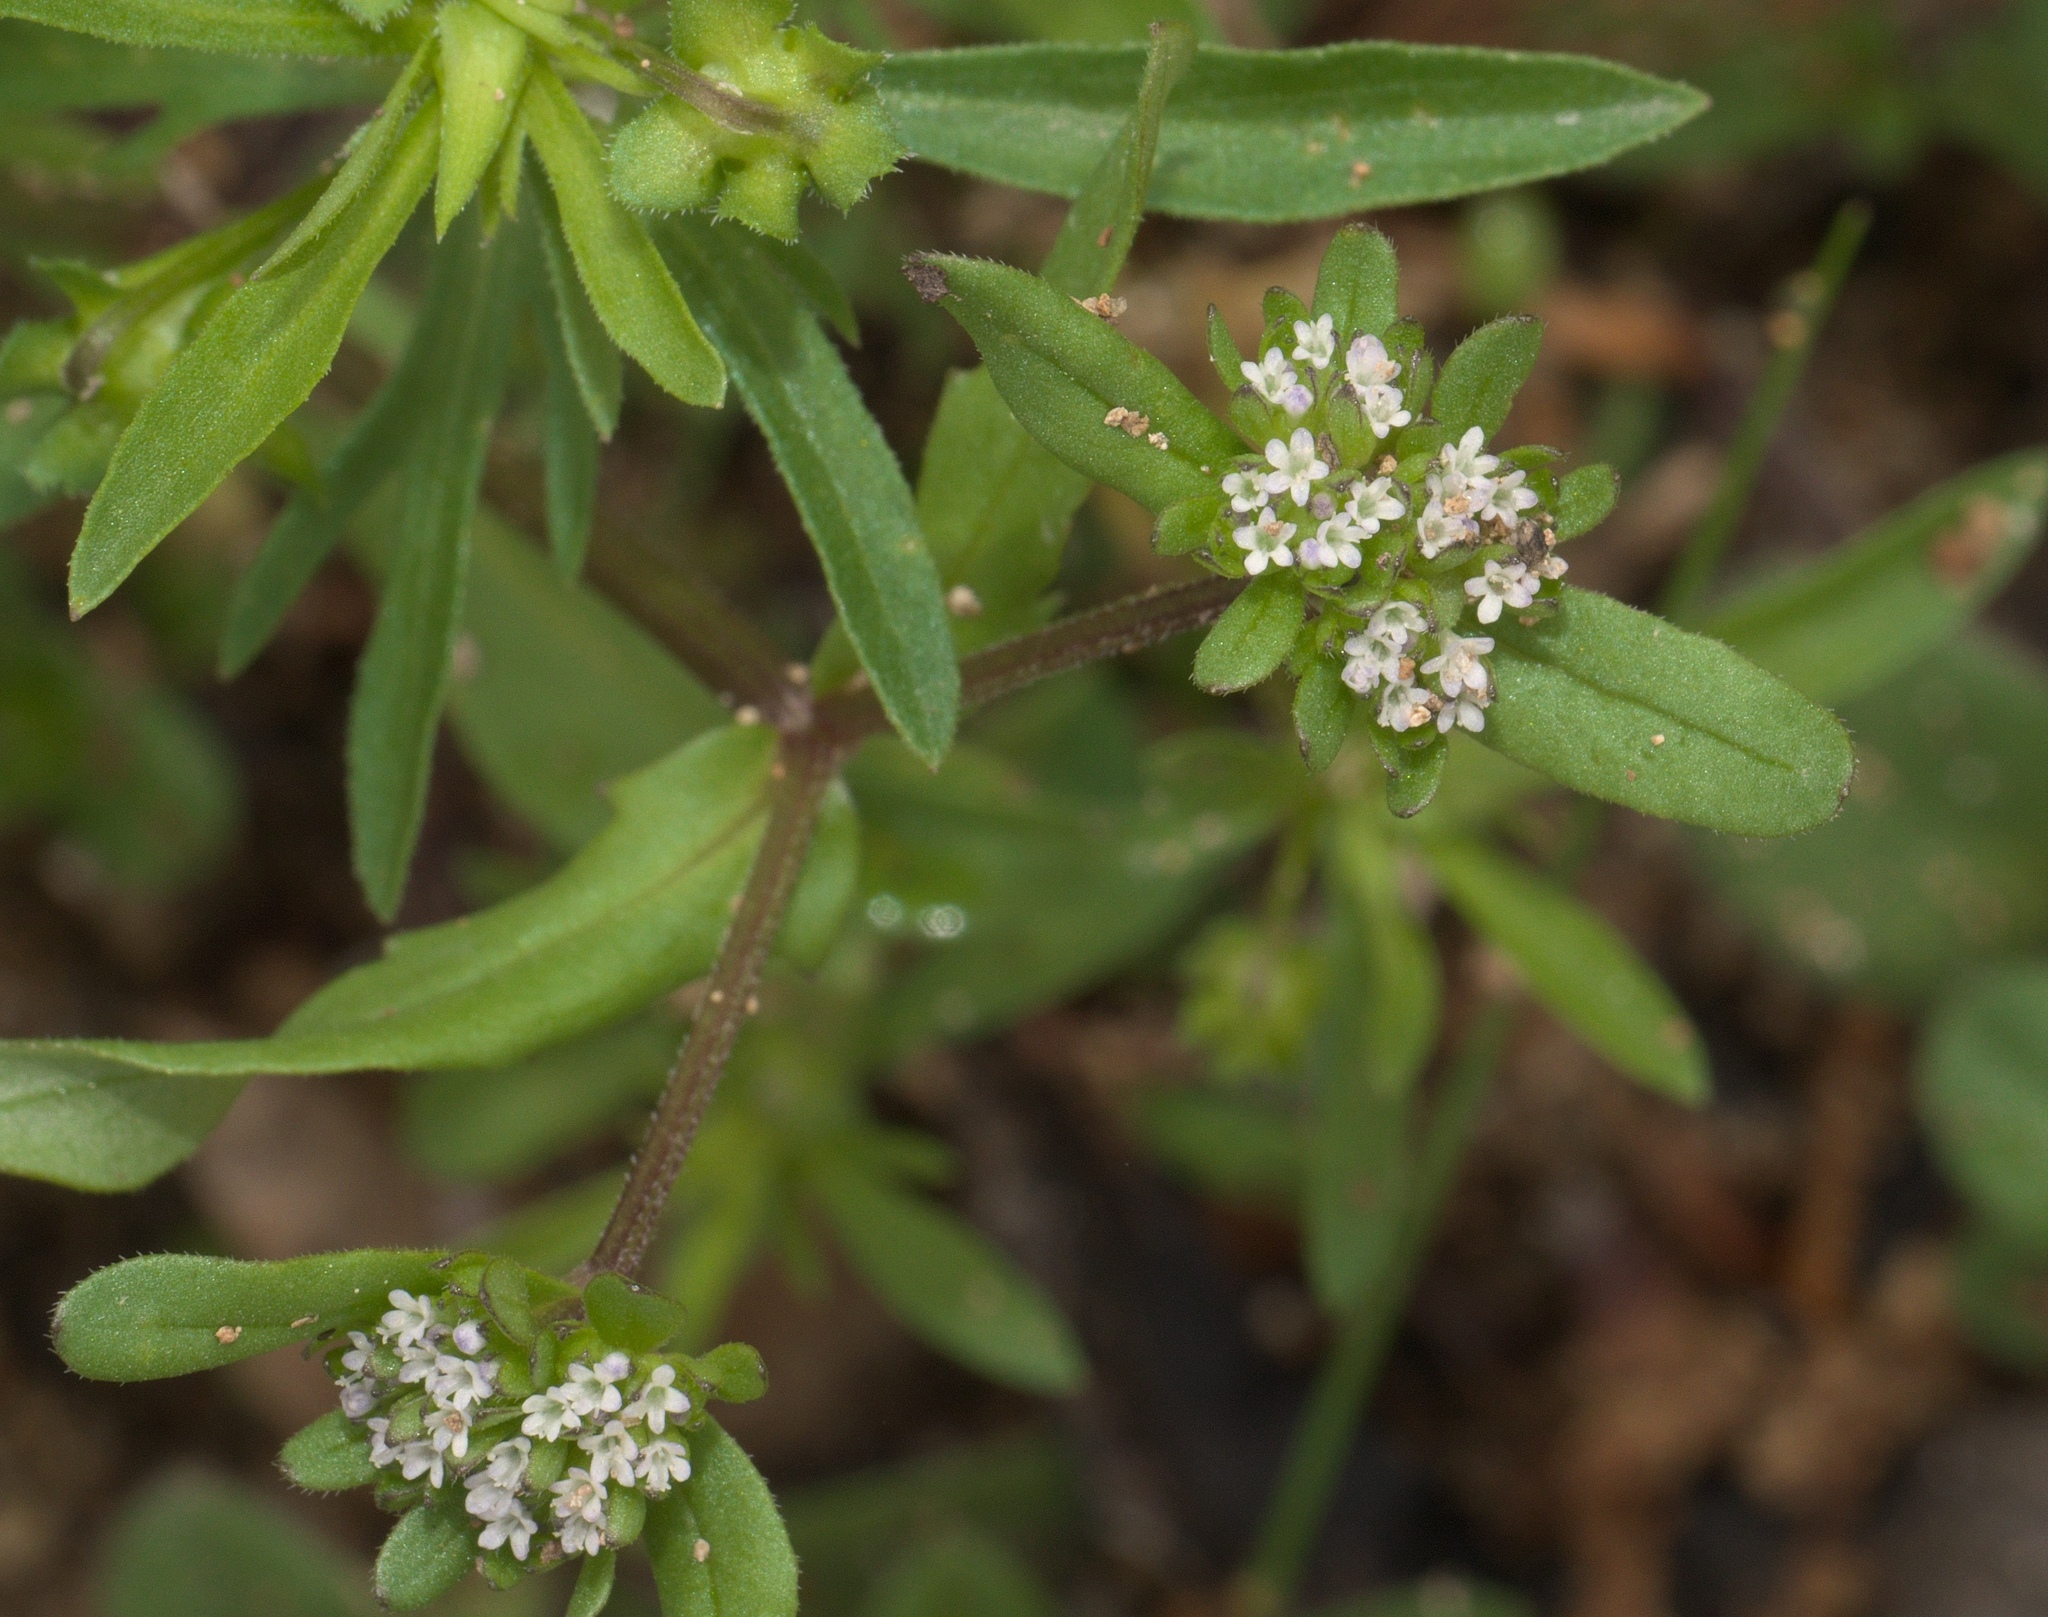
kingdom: Plantae
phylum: Tracheophyta
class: Magnoliopsida
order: Dipsacales
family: Caprifoliaceae
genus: Valerianella
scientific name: Valerianella locusta
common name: Common cornsalad
